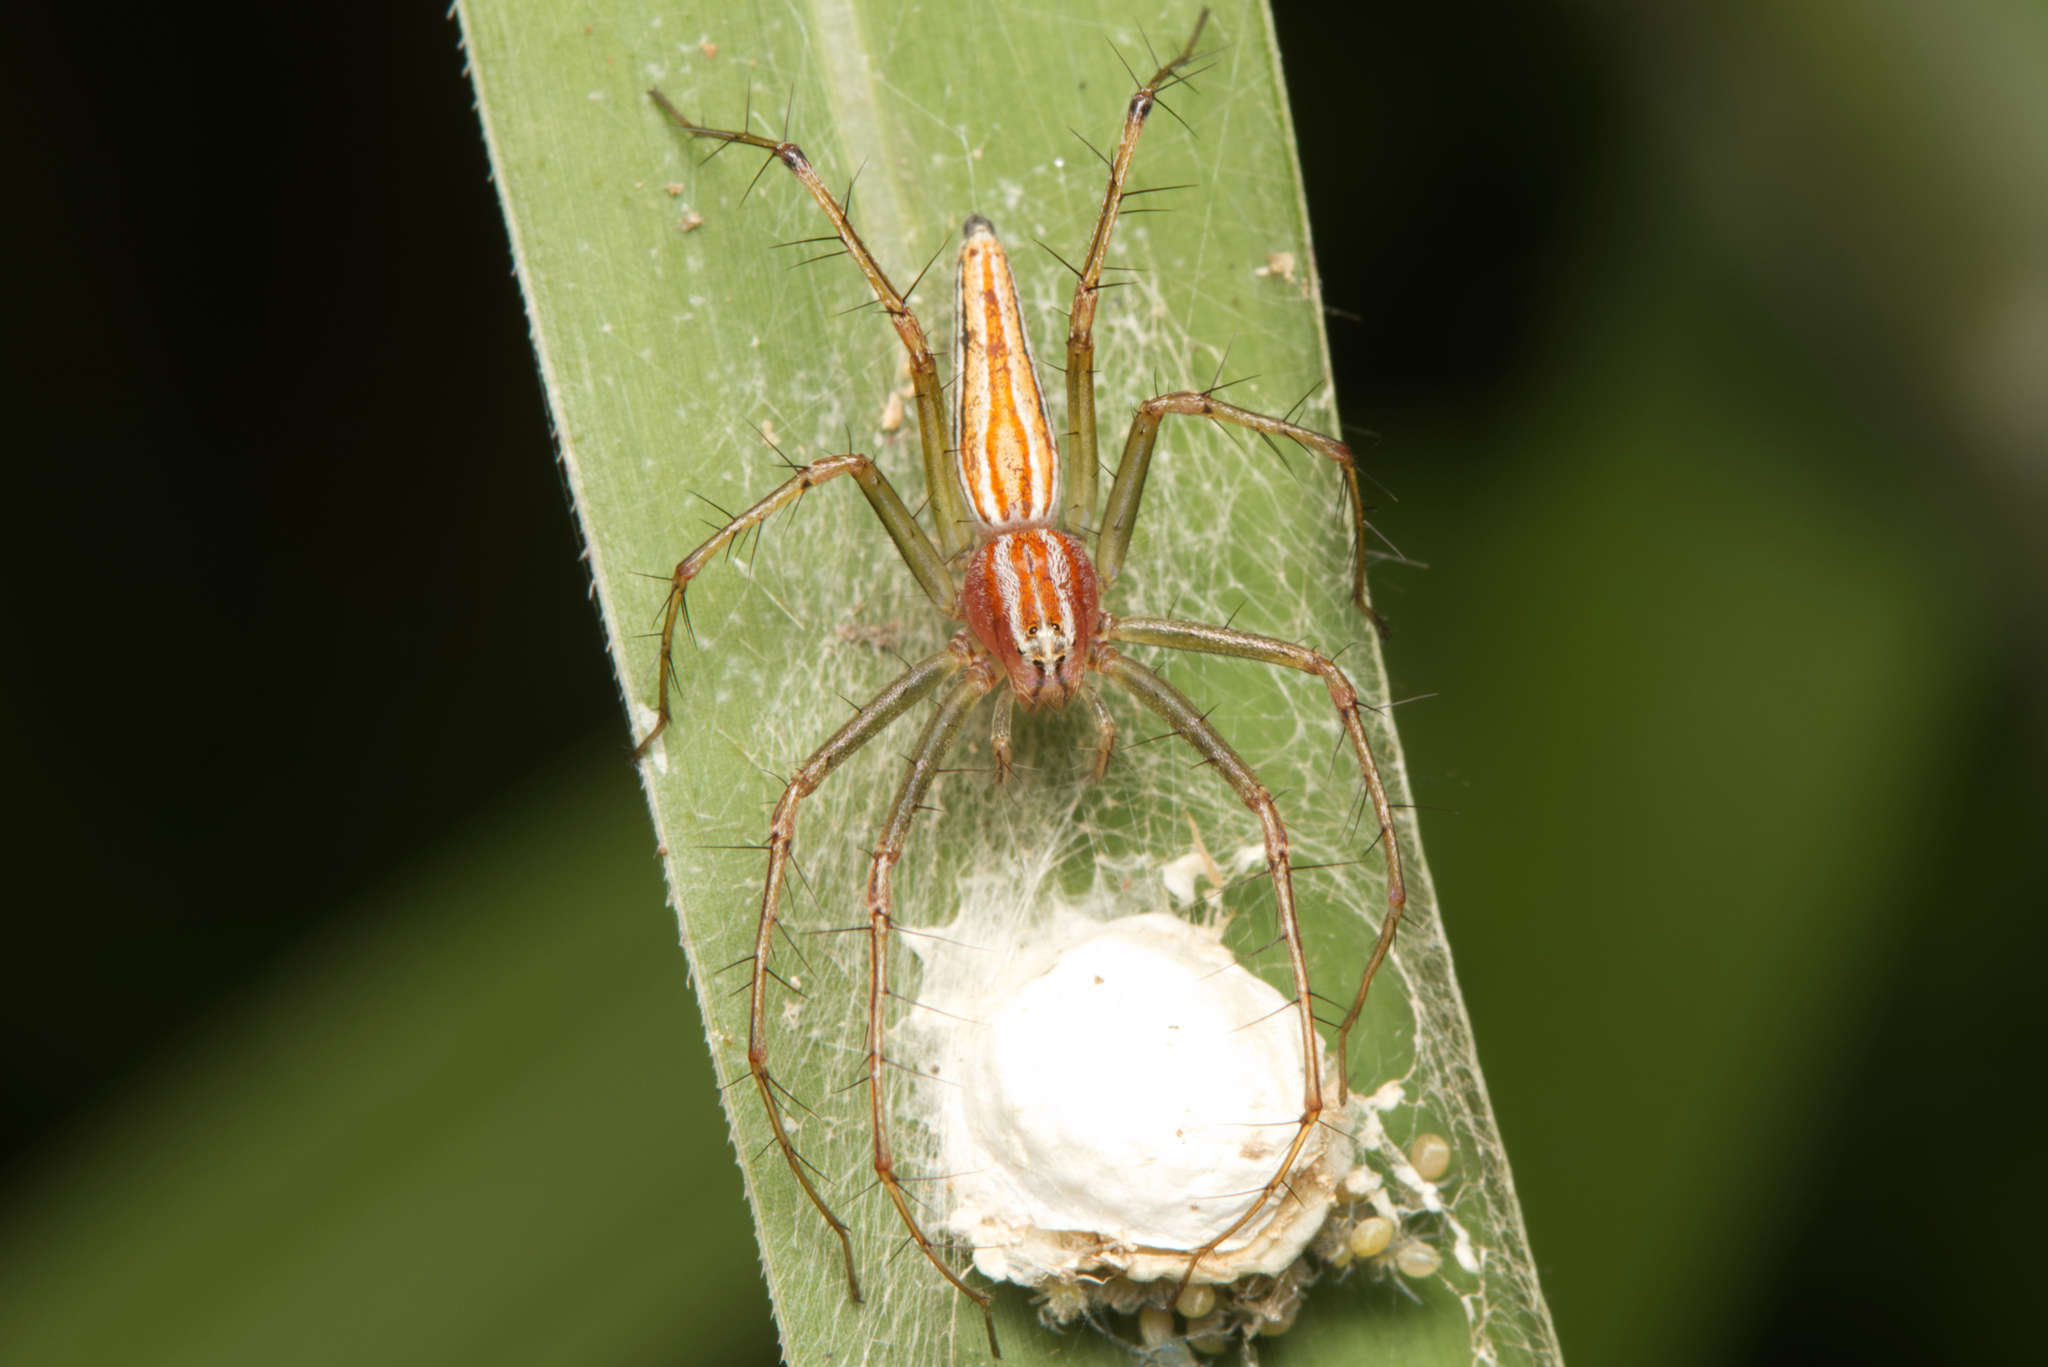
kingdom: Animalia
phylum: Arthropoda
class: Arachnida
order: Araneae
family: Oxyopidae
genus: Oxyopes
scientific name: Oxyopes macilentus
